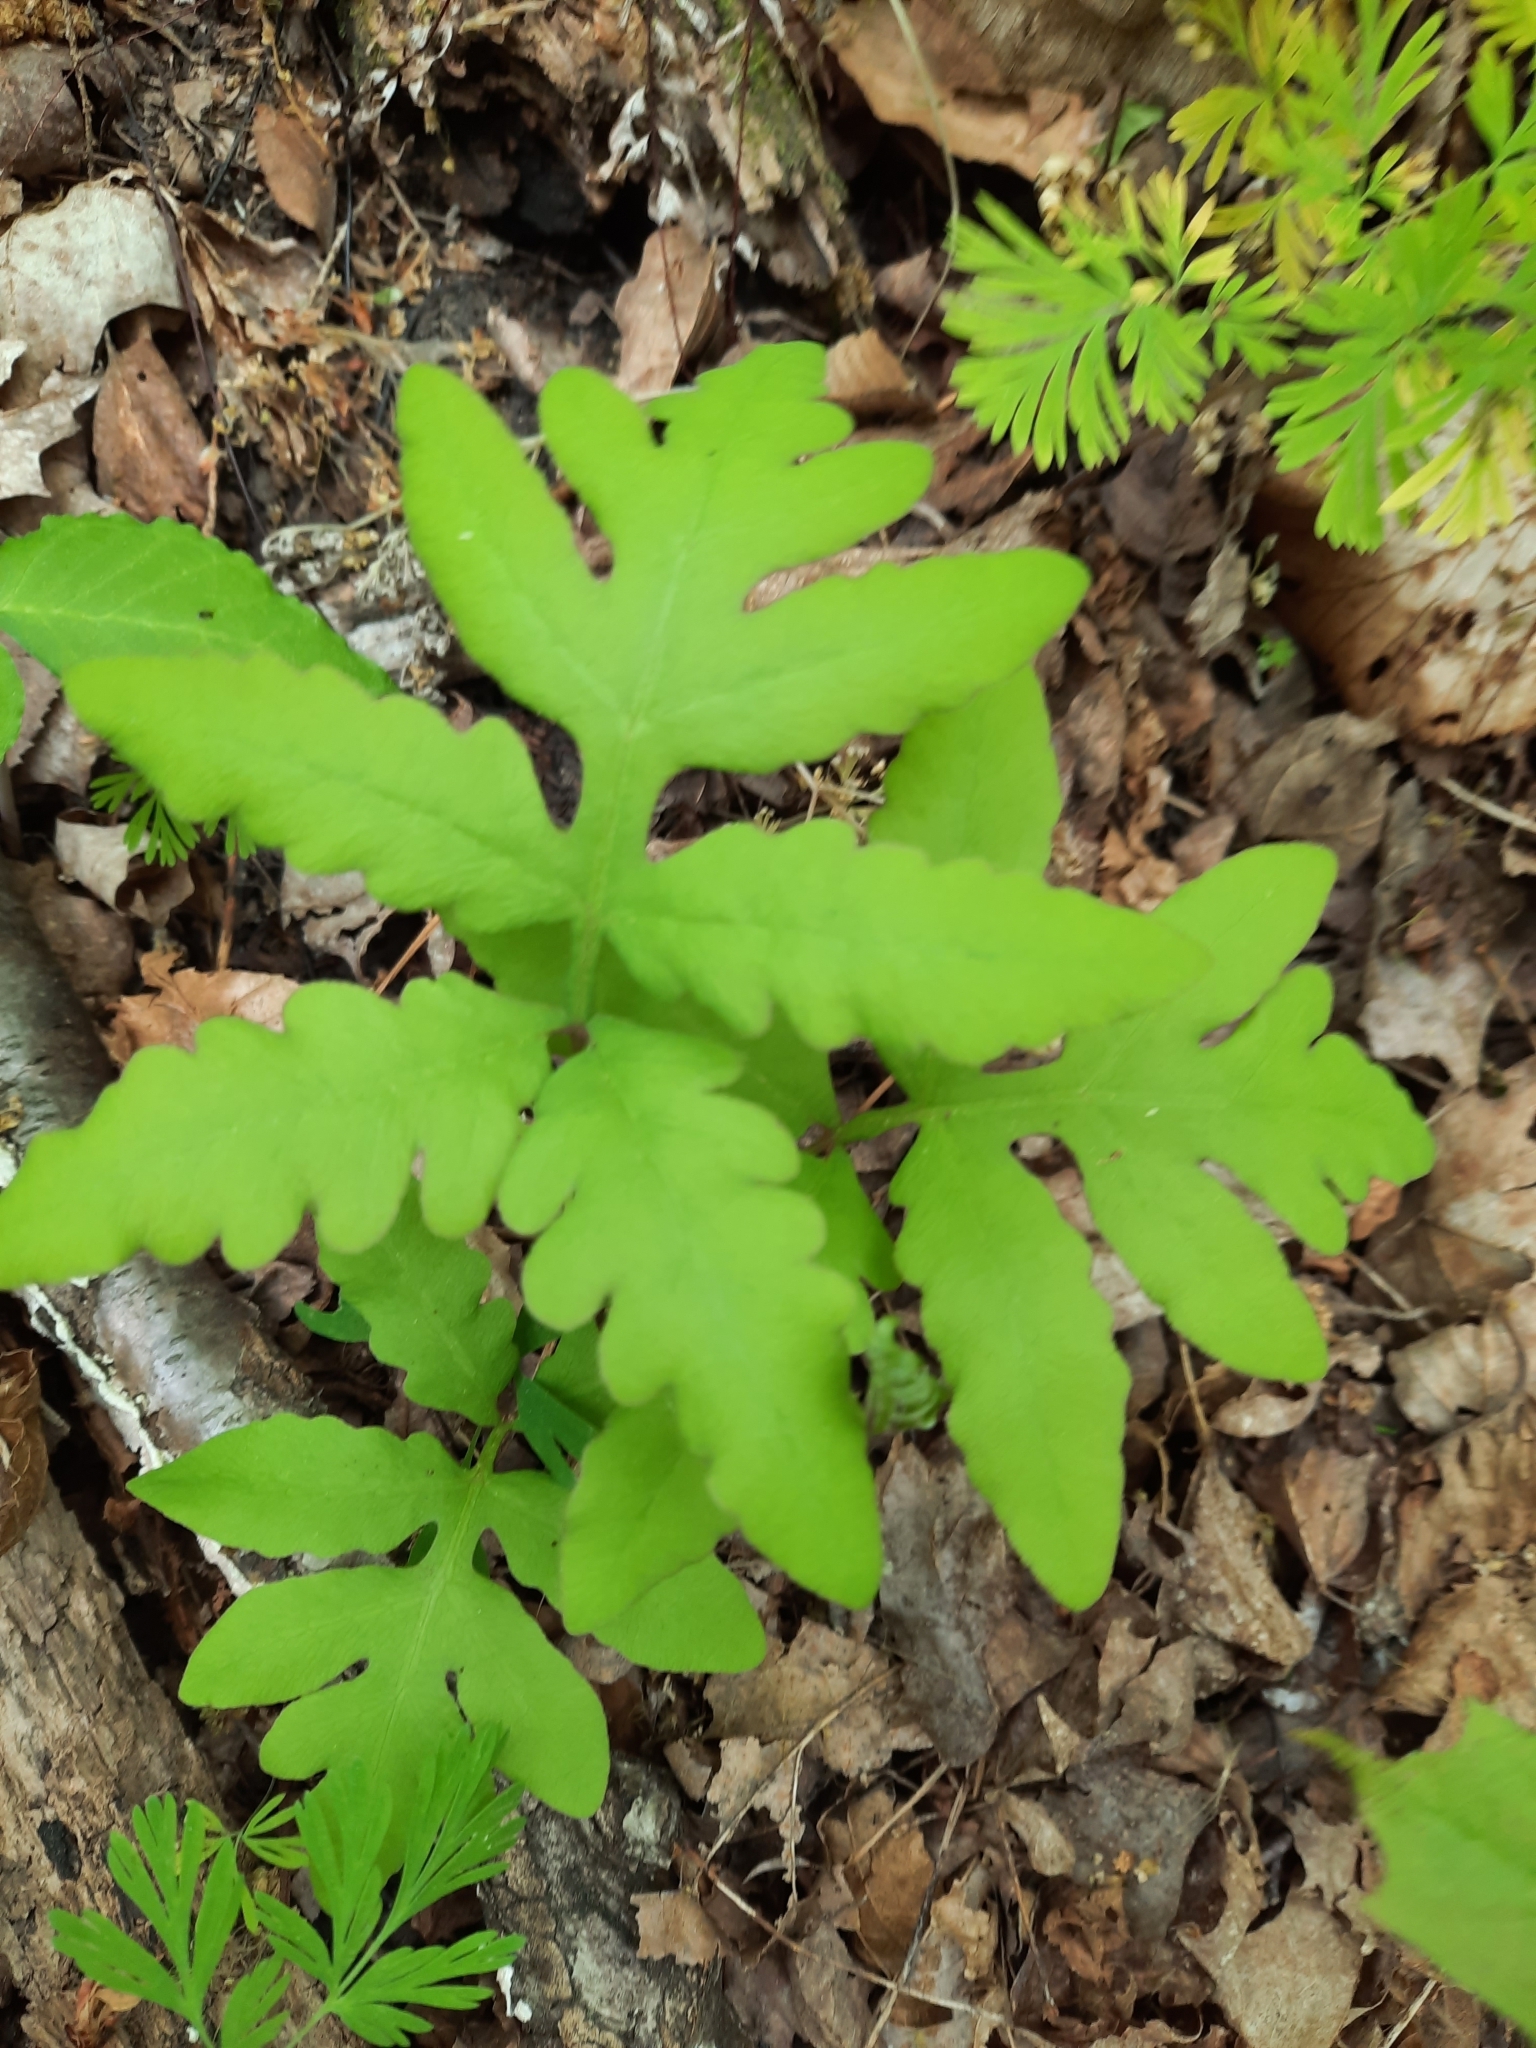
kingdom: Plantae
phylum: Tracheophyta
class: Polypodiopsida
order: Polypodiales
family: Onocleaceae
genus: Onoclea
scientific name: Onoclea sensibilis
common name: Sensitive fern
